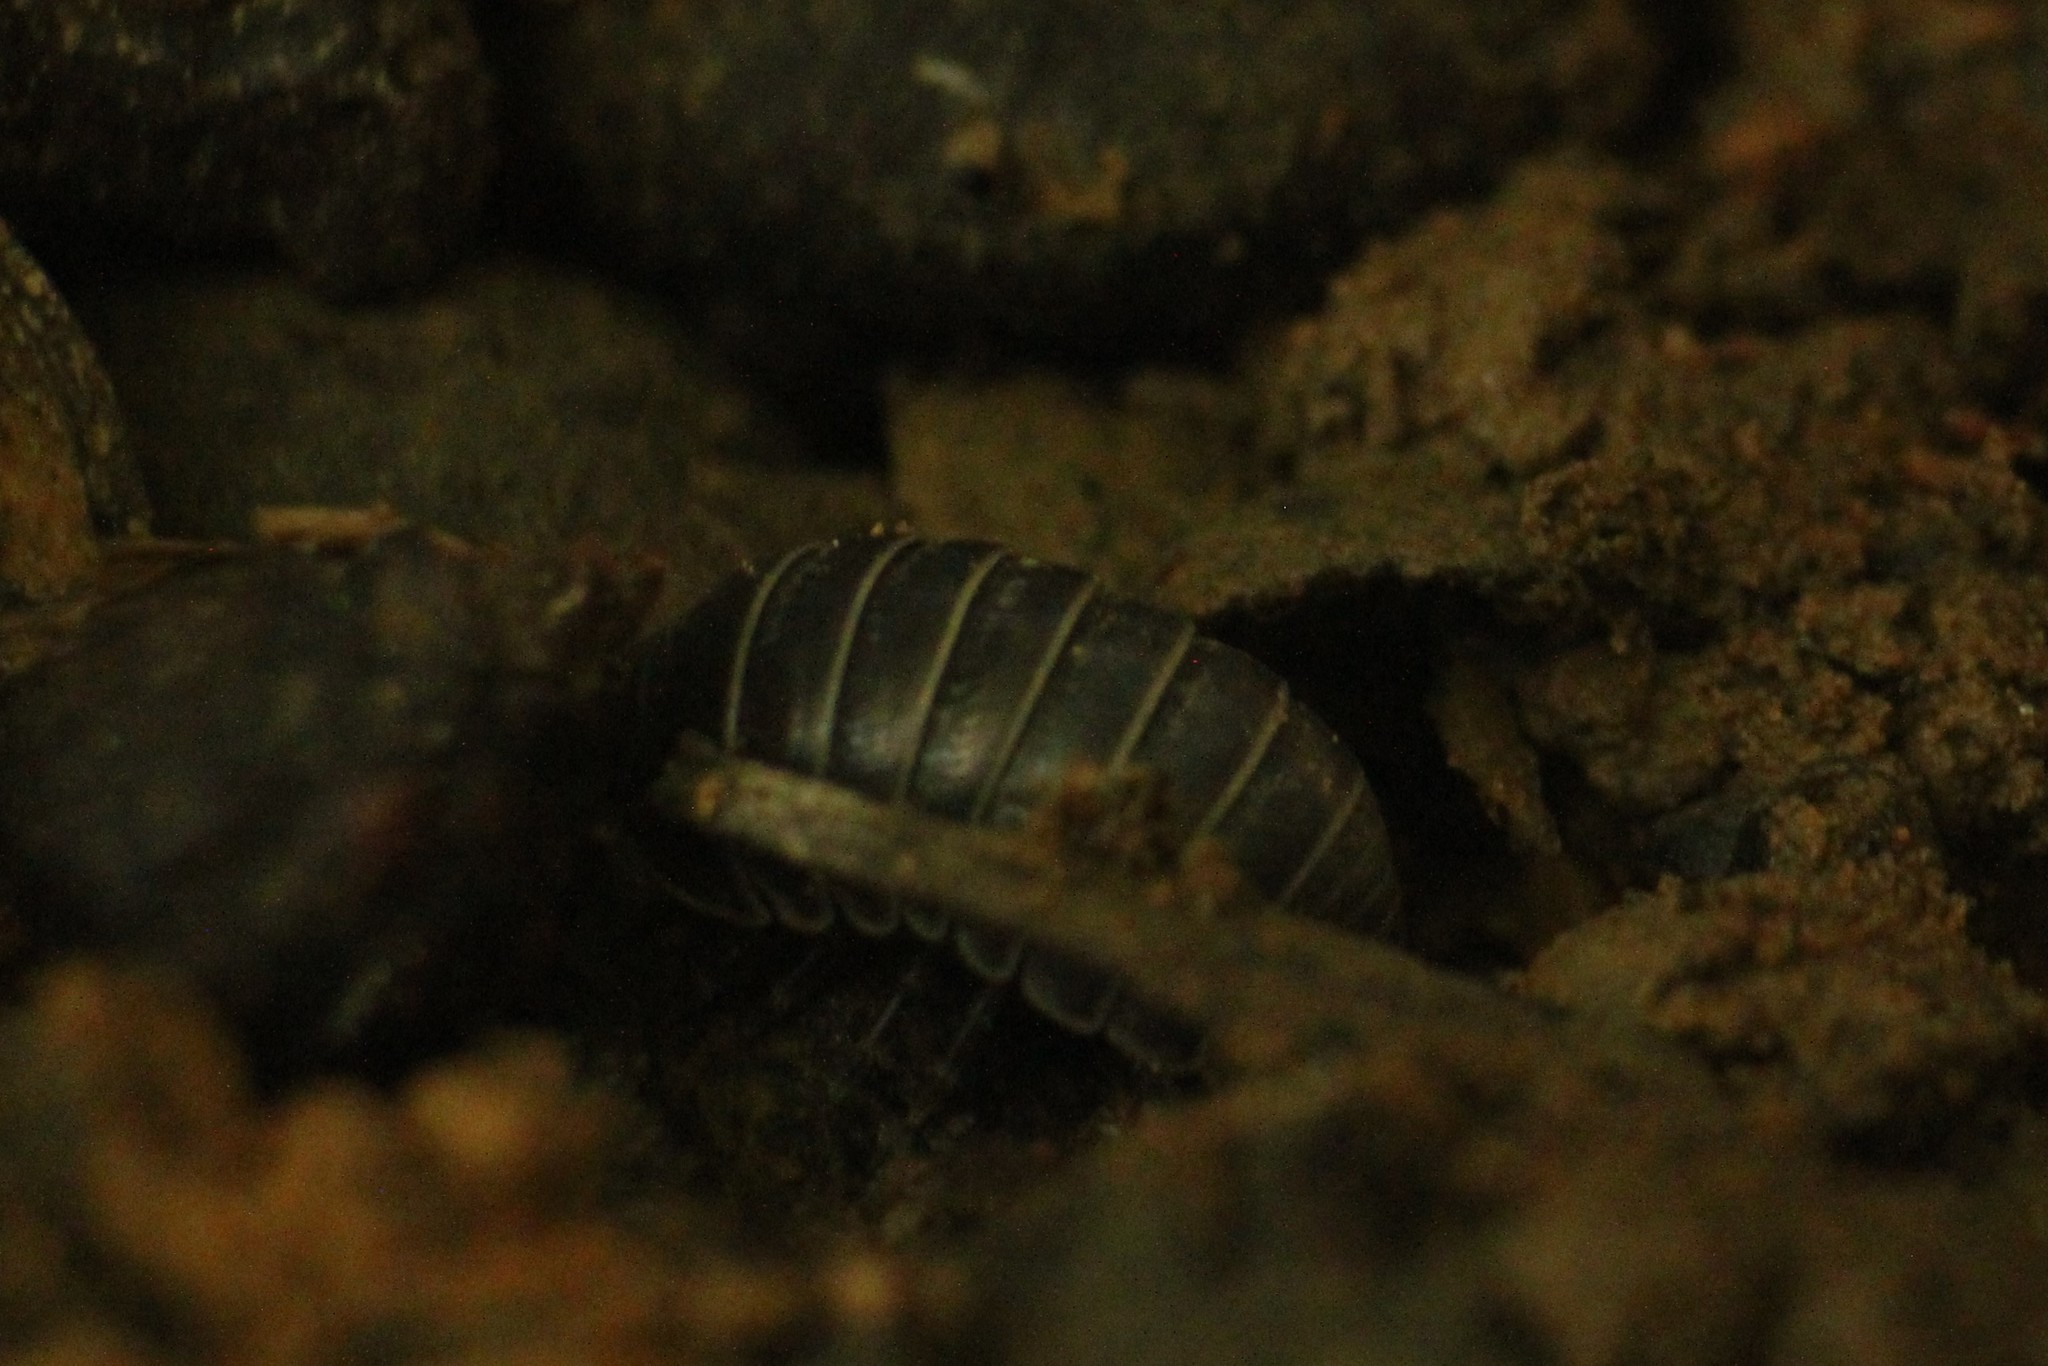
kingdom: Animalia
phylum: Arthropoda
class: Malacostraca
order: Isopoda
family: Armadillidiidae
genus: Armadillidium
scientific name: Armadillidium vulgare
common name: Common pill woodlouse
